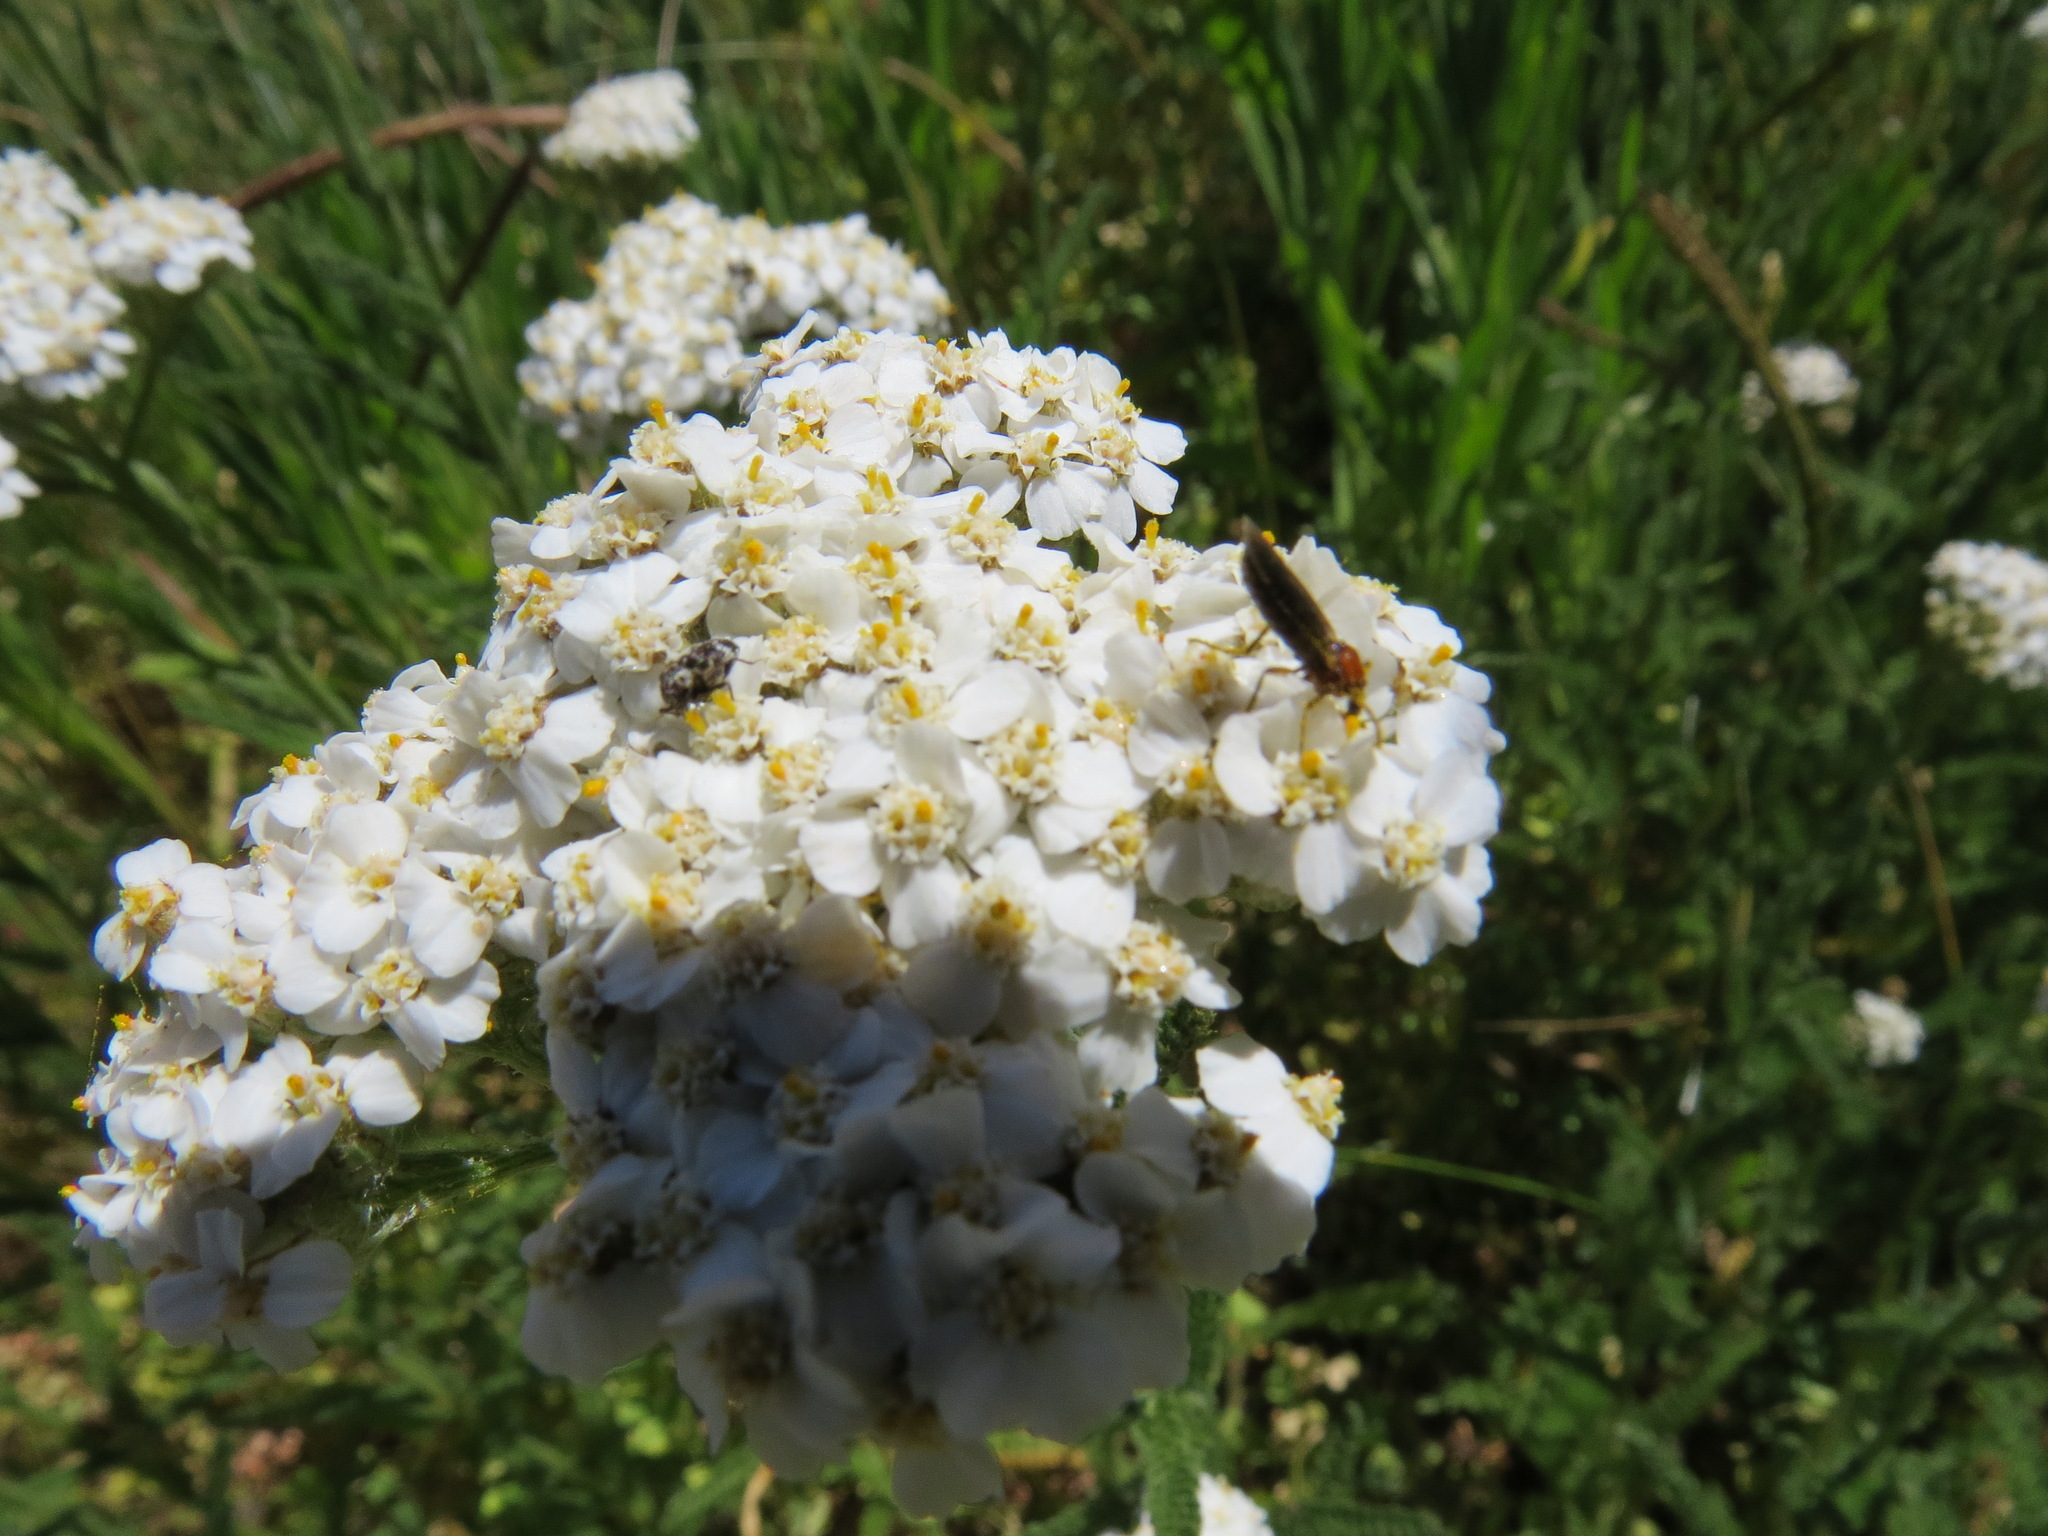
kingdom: Animalia
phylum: Arthropoda
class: Insecta
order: Diptera
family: Bibionidae
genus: Dilophus
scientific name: Dilophus
